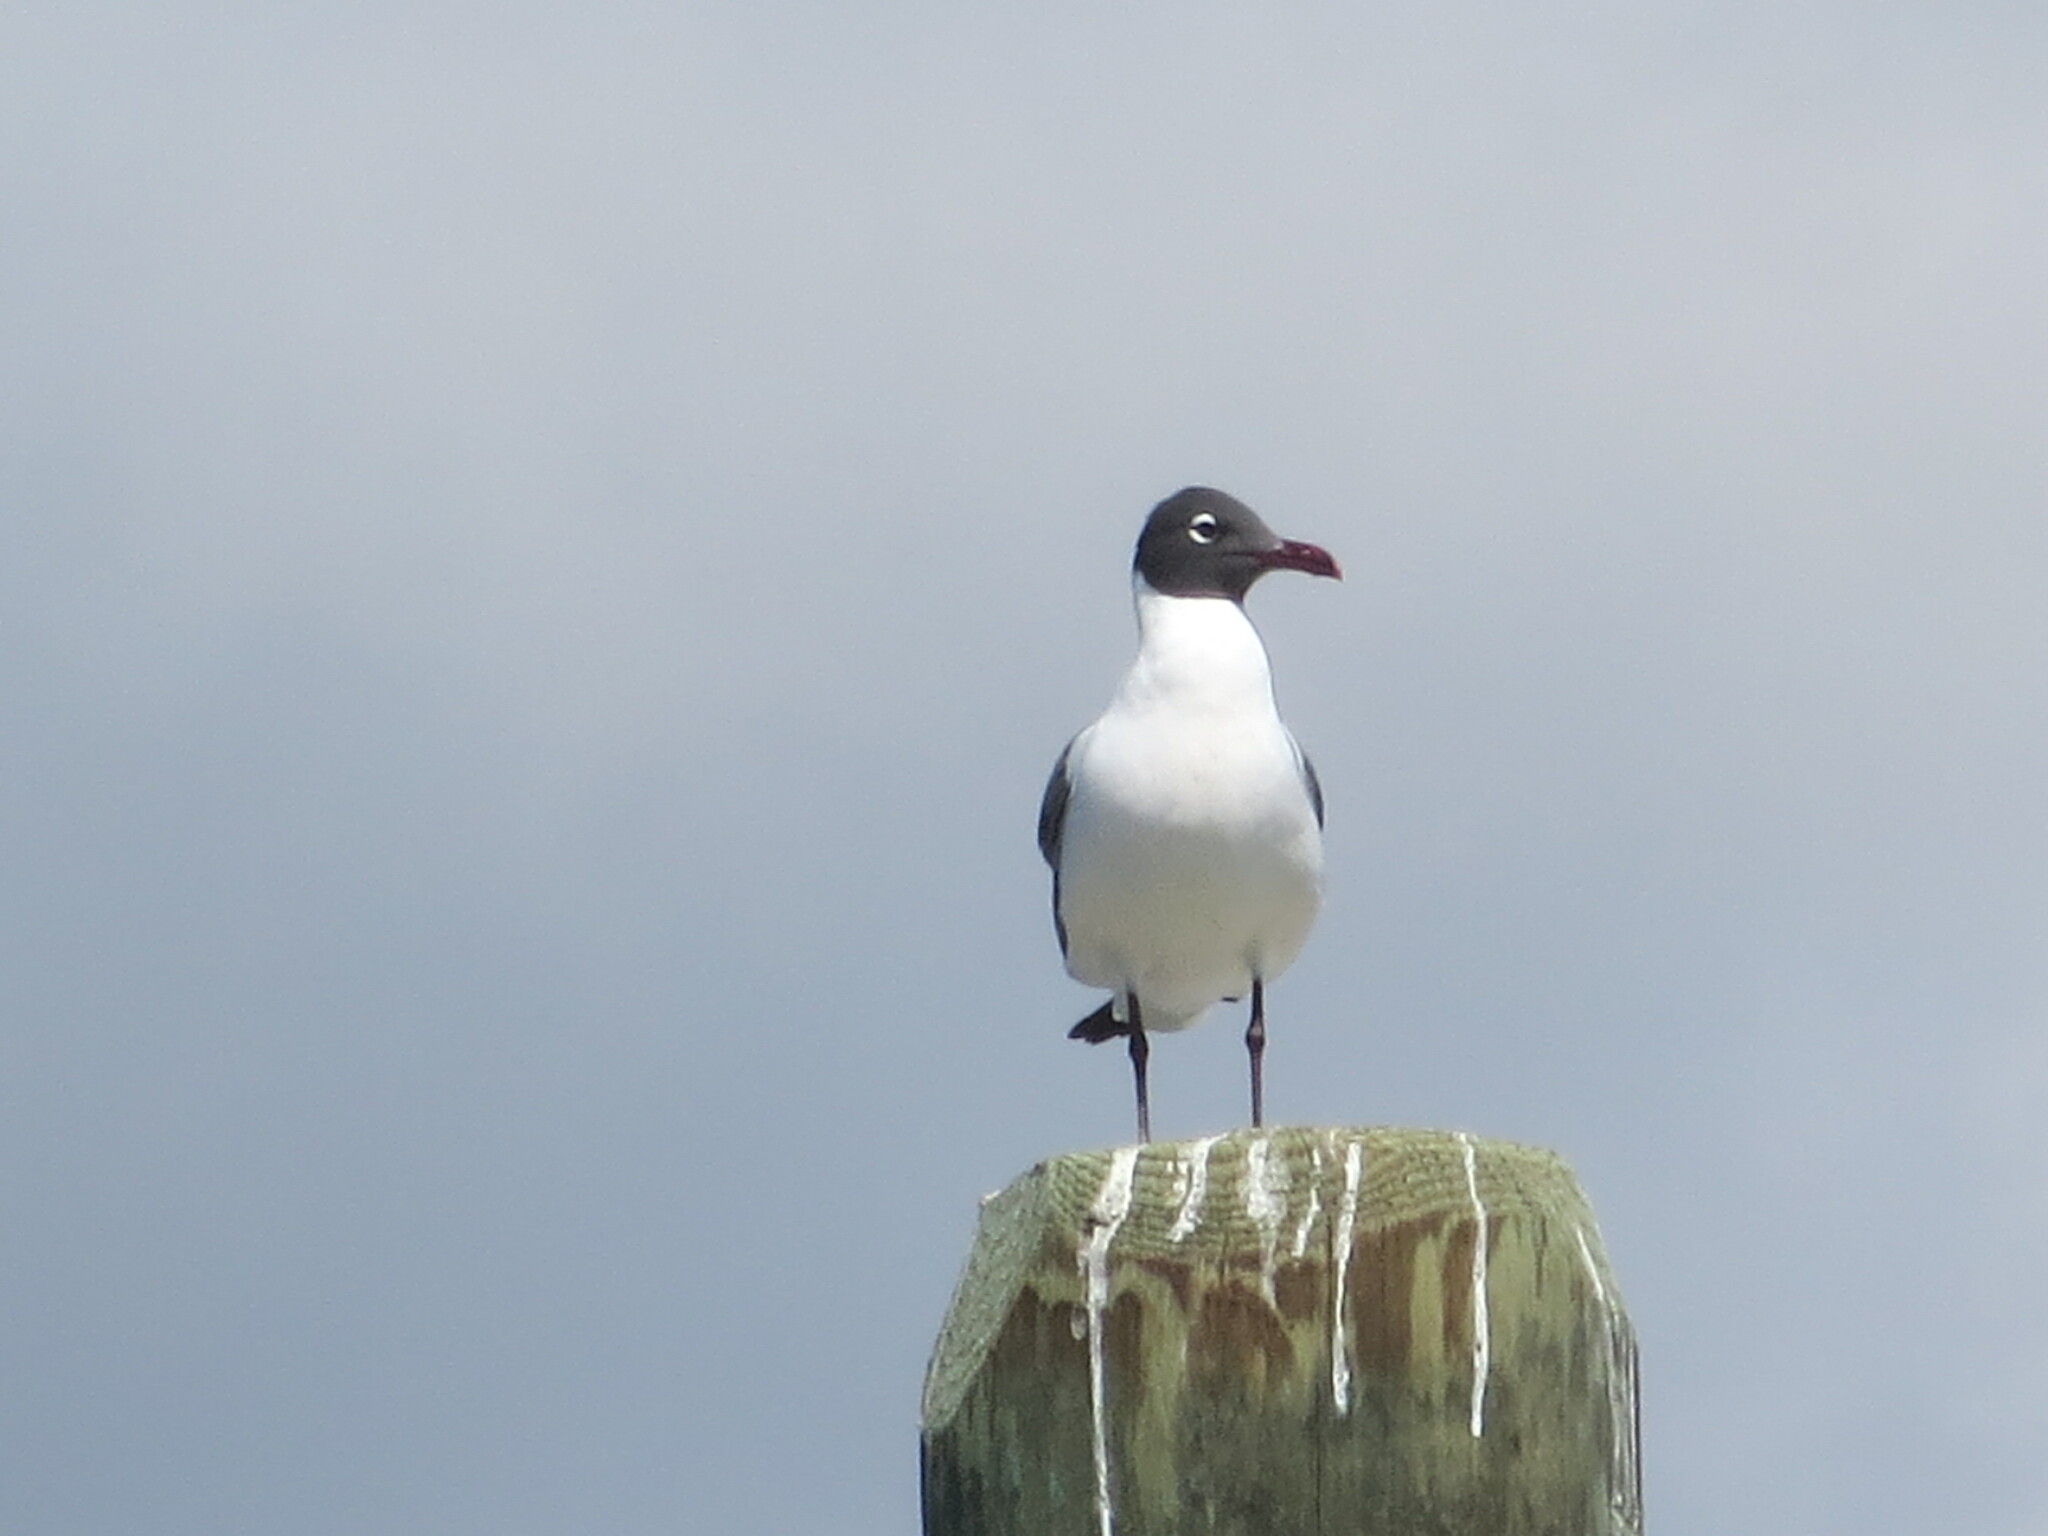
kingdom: Animalia
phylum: Chordata
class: Aves
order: Charadriiformes
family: Laridae
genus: Leucophaeus
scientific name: Leucophaeus atricilla
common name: Laughing gull
